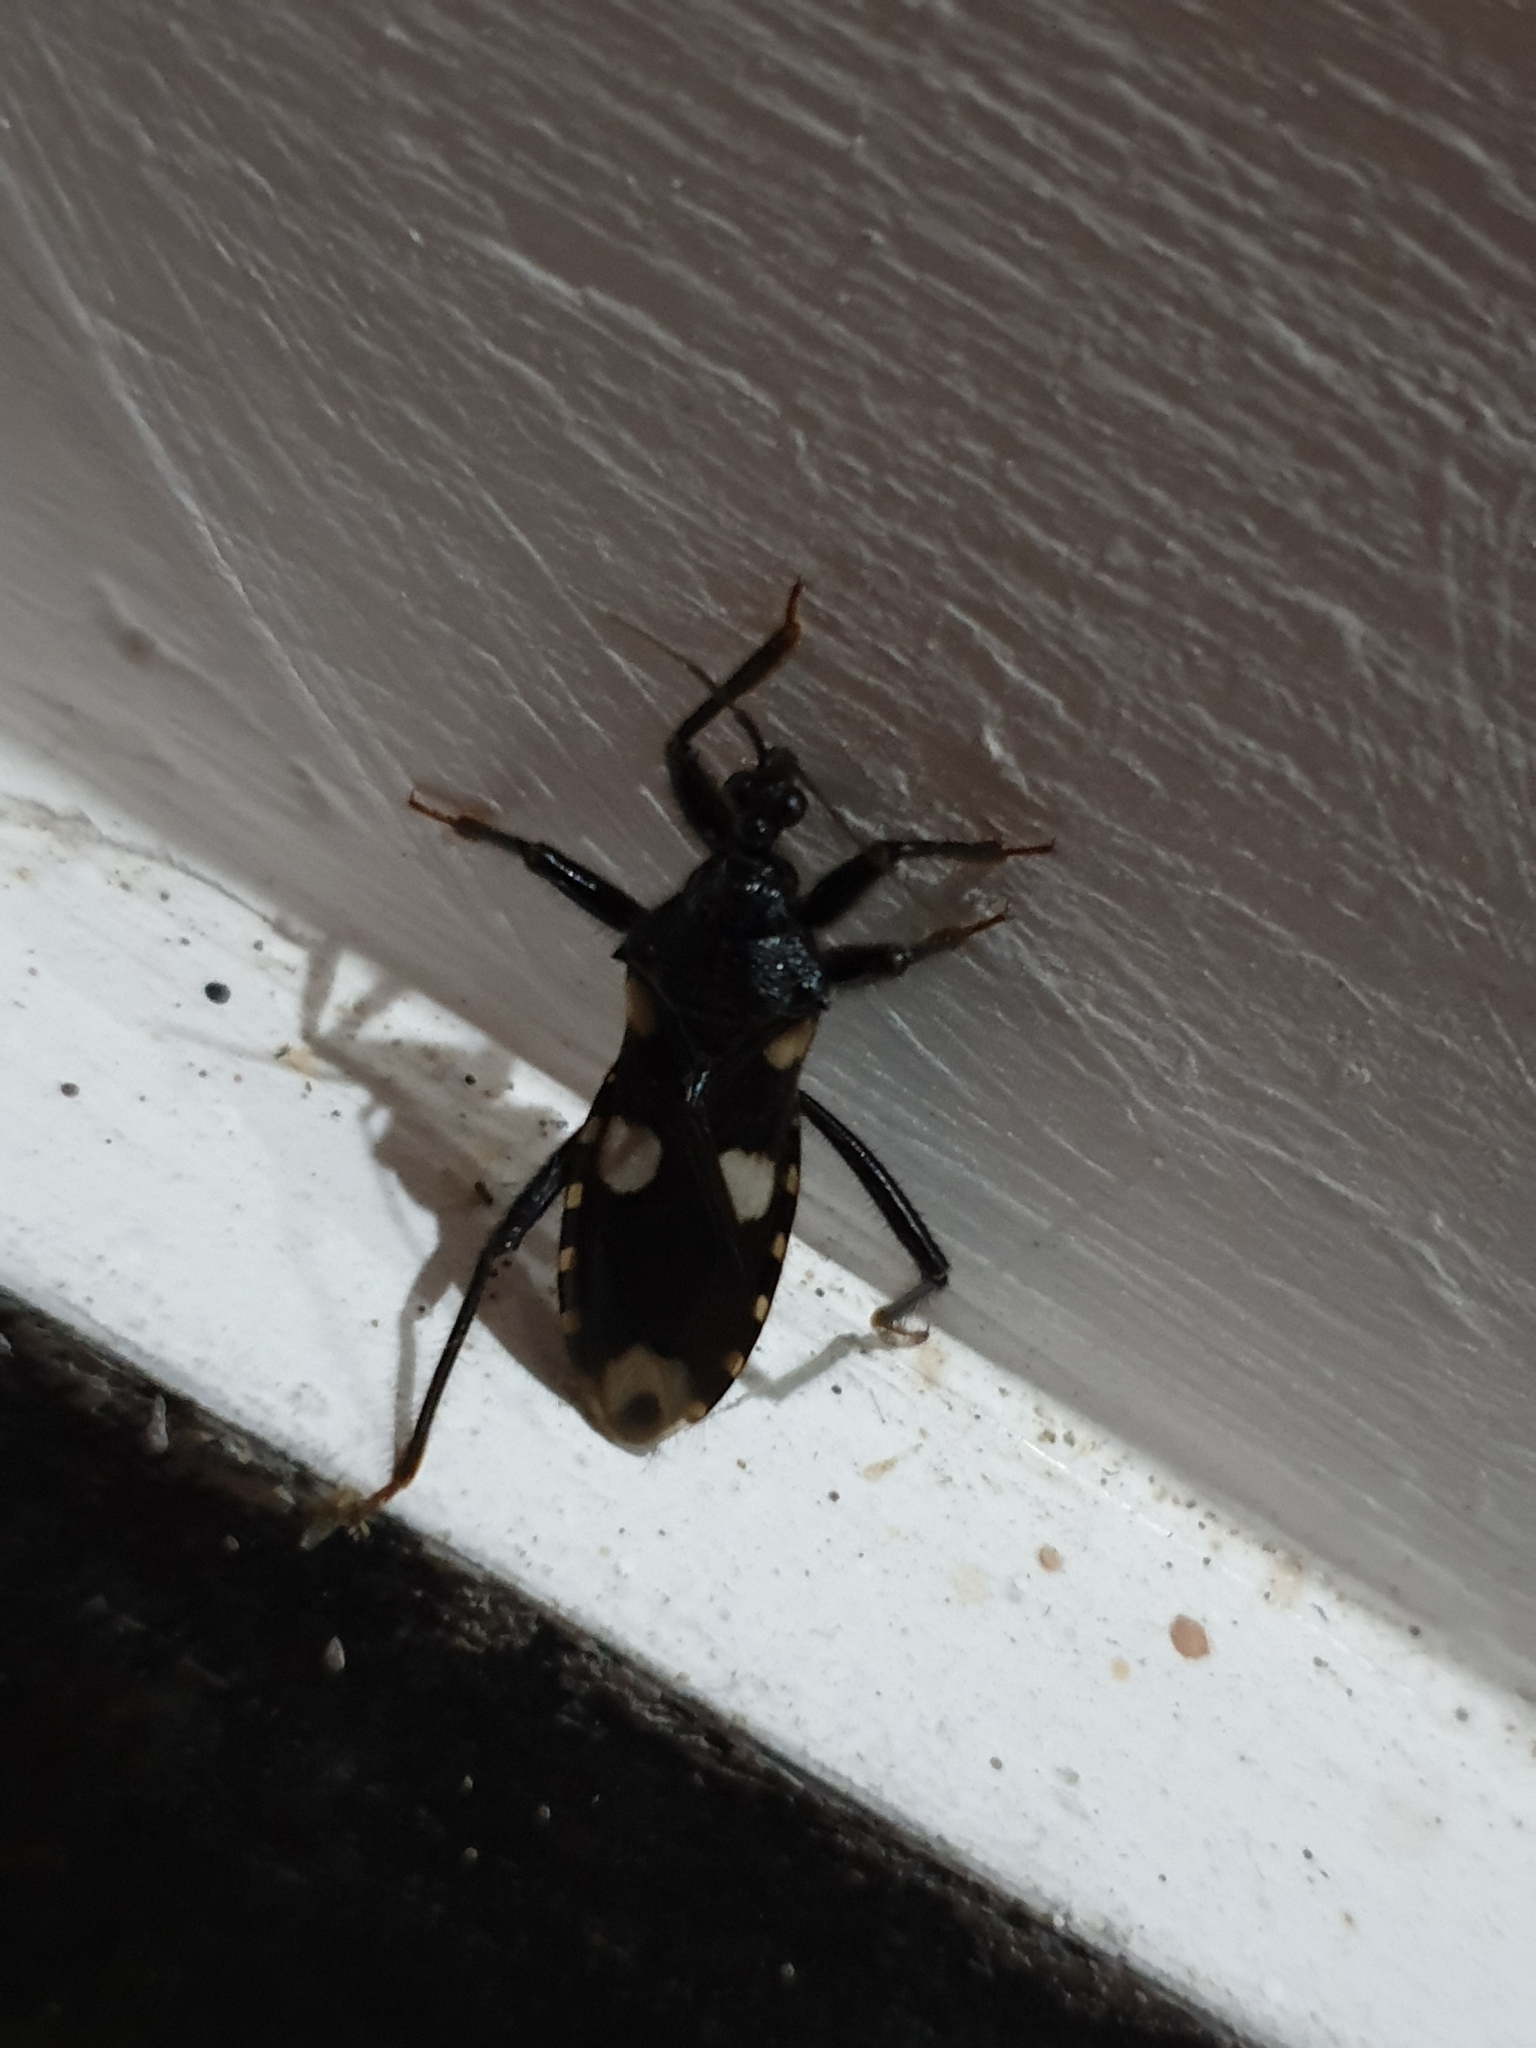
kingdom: Animalia
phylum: Arthropoda
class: Insecta
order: Hemiptera
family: Reduviidae
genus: Acanthaspis
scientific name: Acanthaspis siva
